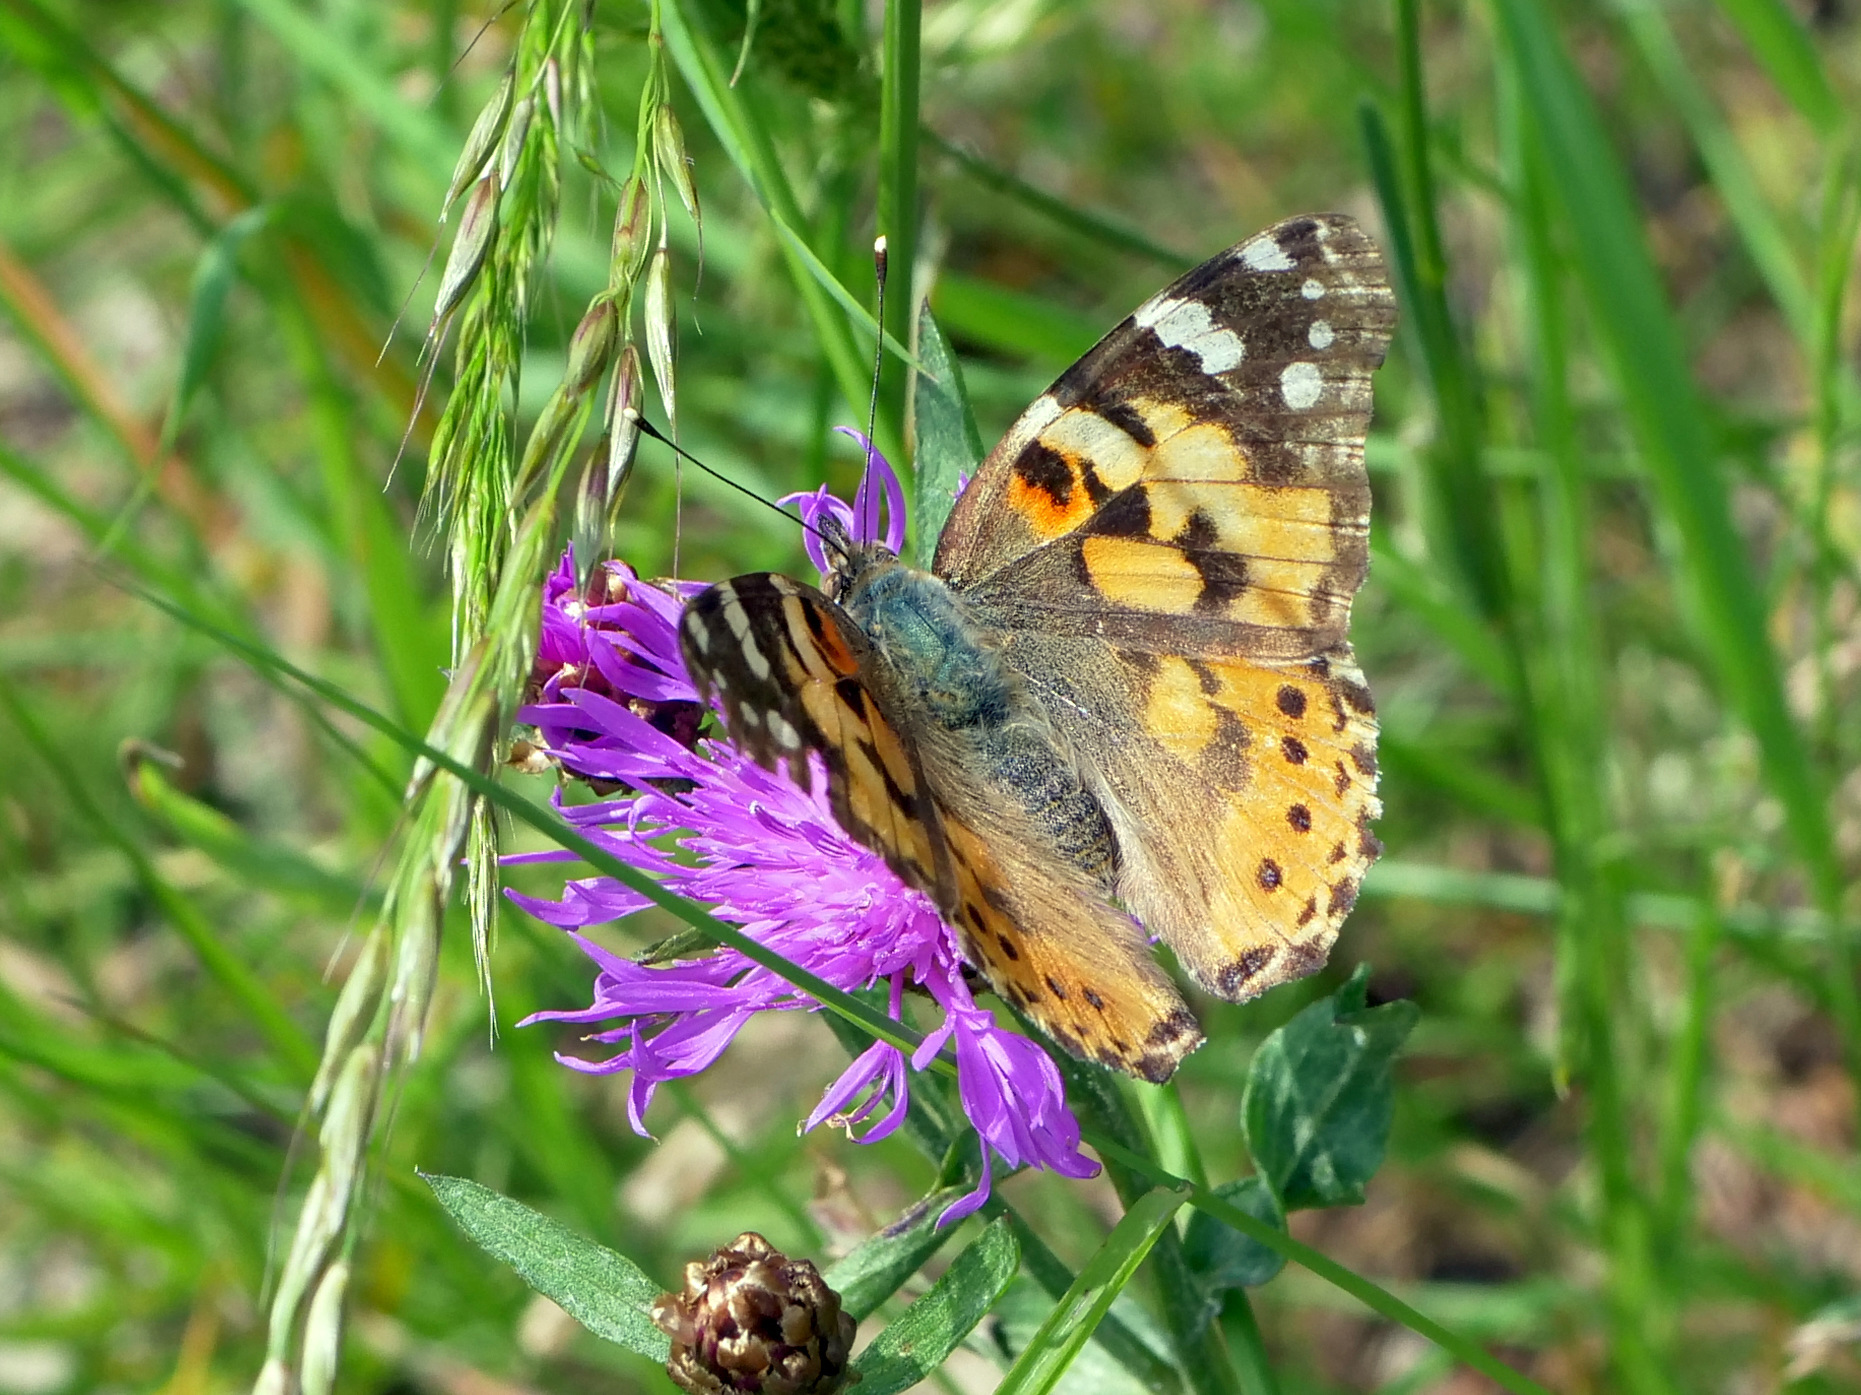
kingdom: Animalia
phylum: Arthropoda
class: Insecta
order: Lepidoptera
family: Nymphalidae
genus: Vanessa
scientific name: Vanessa cardui
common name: Painted lady
